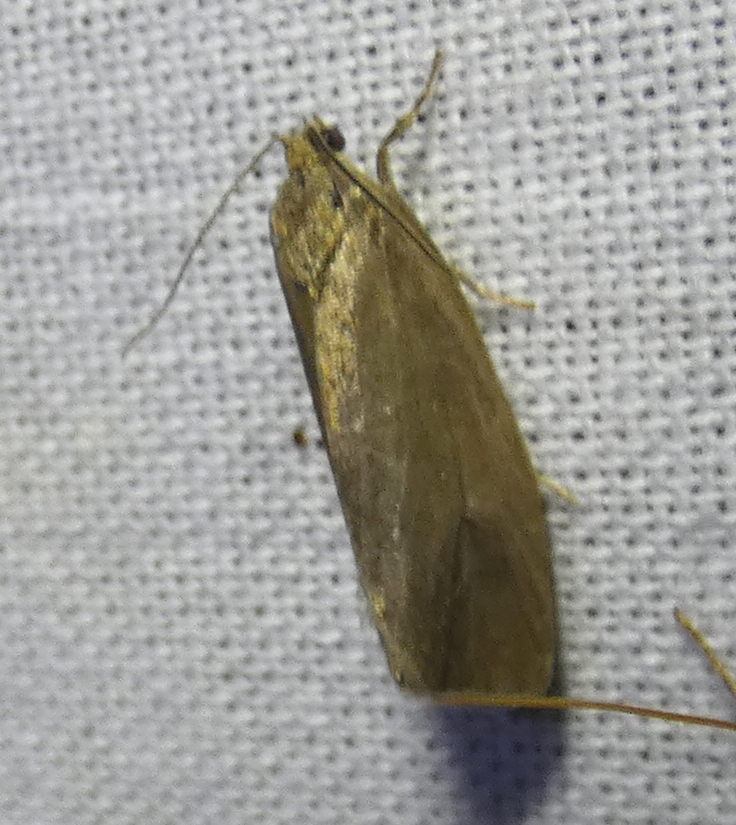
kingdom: Animalia
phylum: Arthropoda
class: Insecta
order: Lepidoptera
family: Tortricidae
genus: Pseudosciaphila
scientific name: Pseudosciaphila branderiana
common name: Great marble
